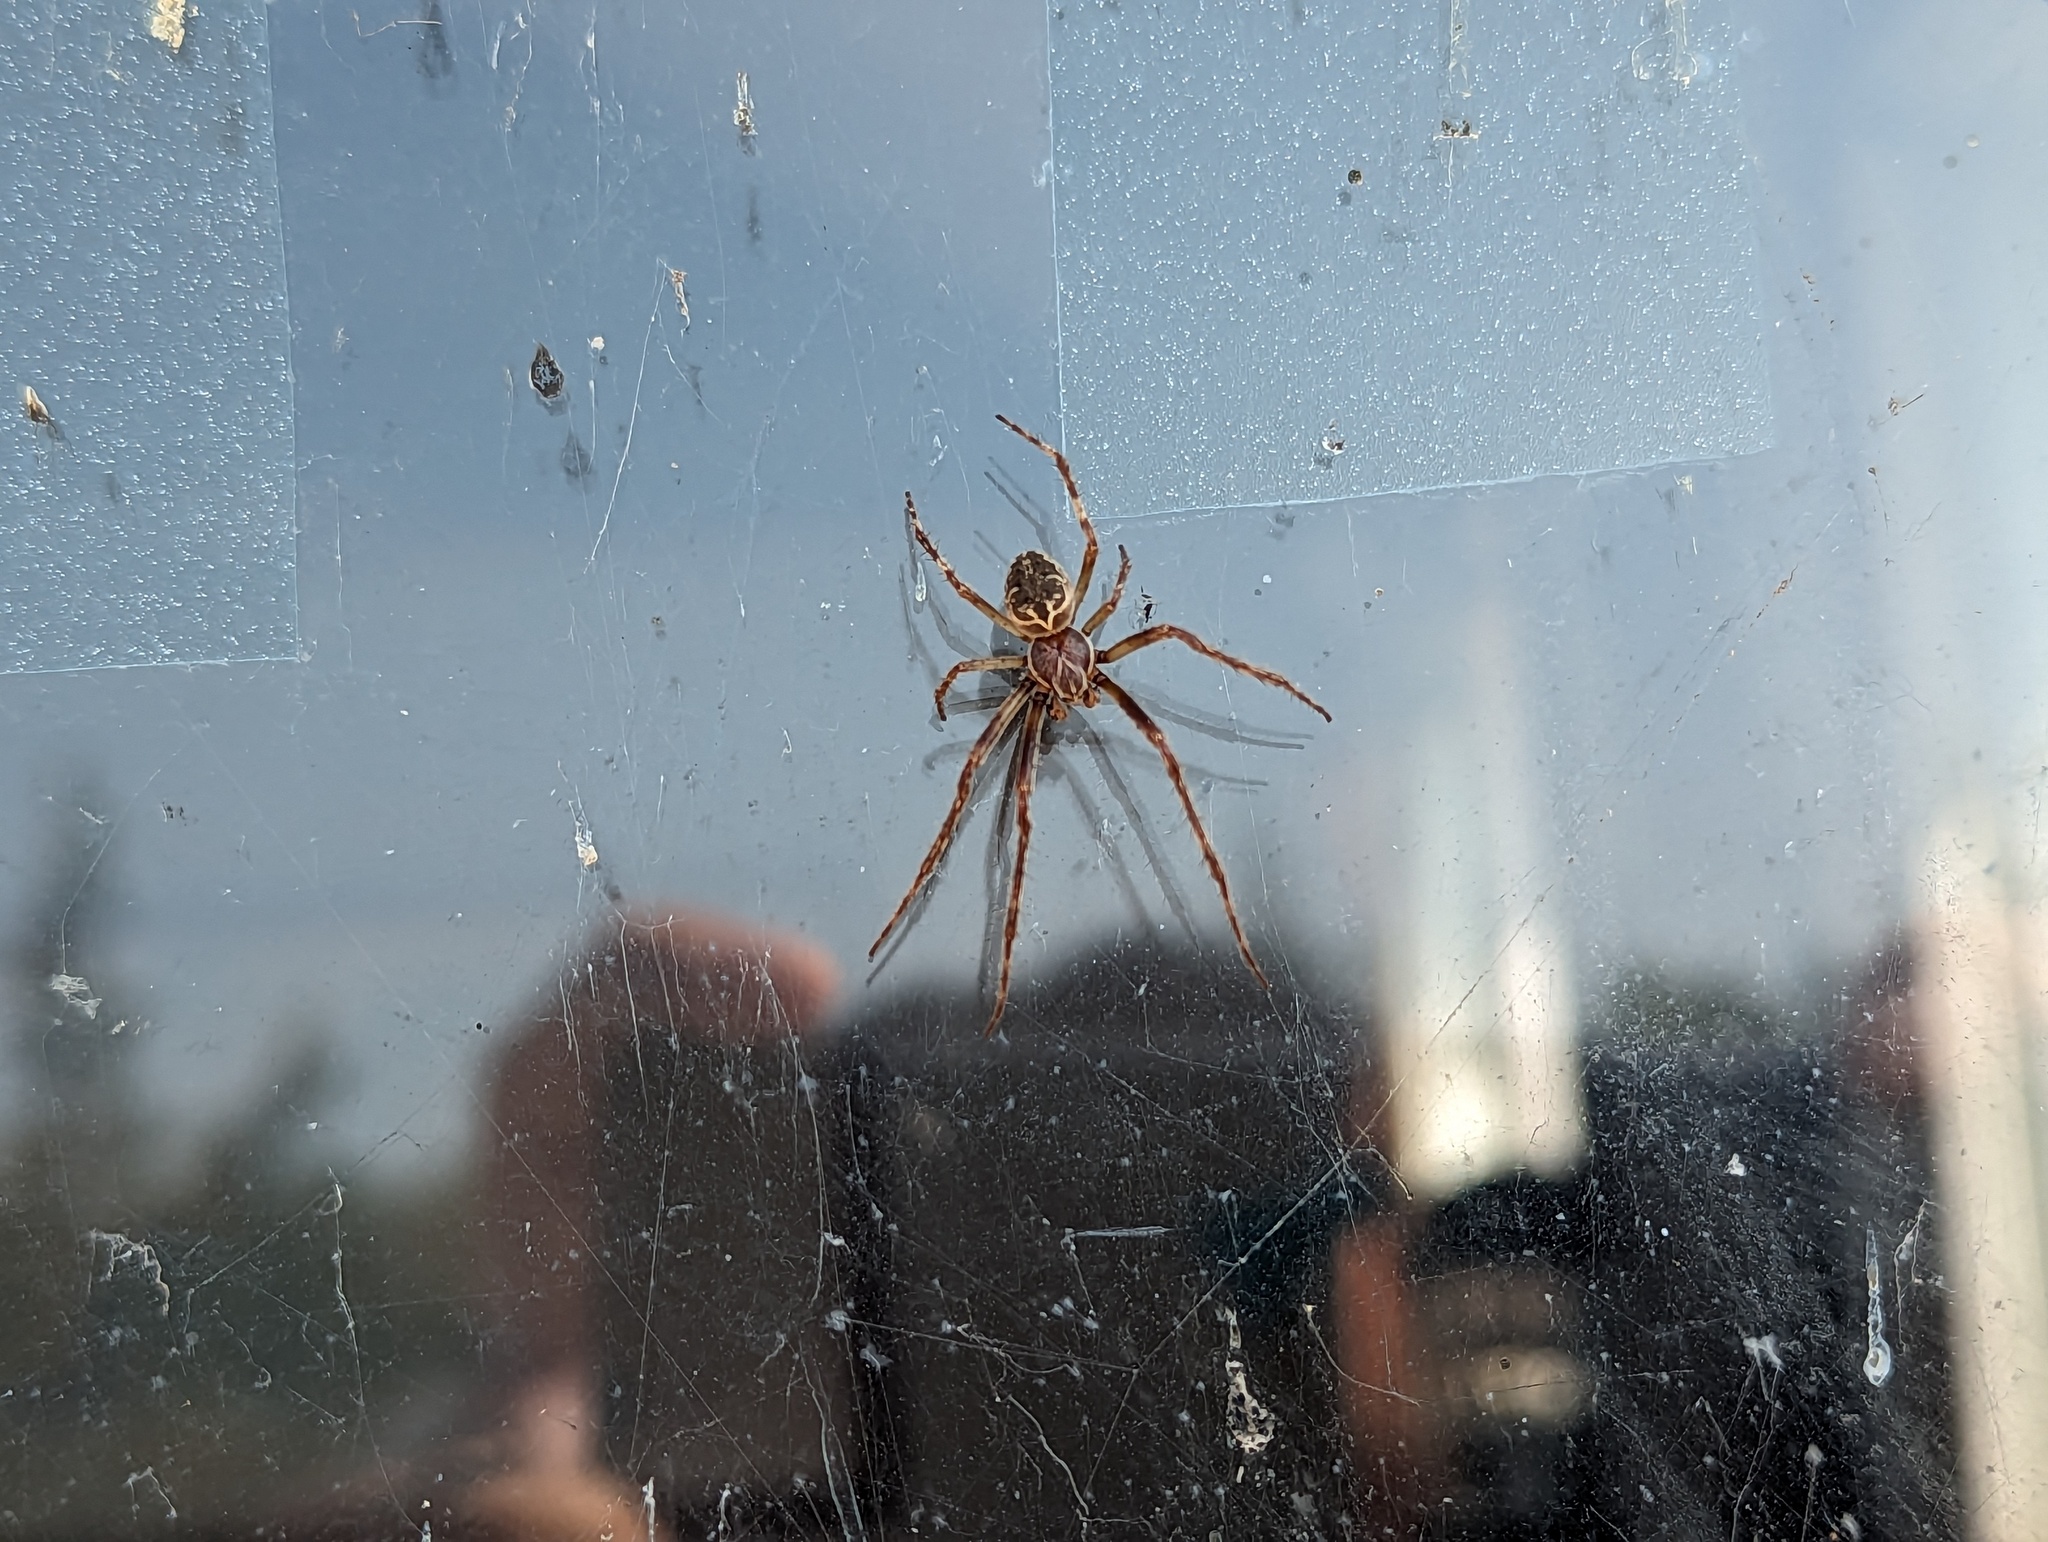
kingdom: Animalia
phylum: Arthropoda
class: Arachnida
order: Araneae
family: Araneidae
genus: Larinioides
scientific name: Larinioides sclopetarius
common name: Bridge orbweaver
